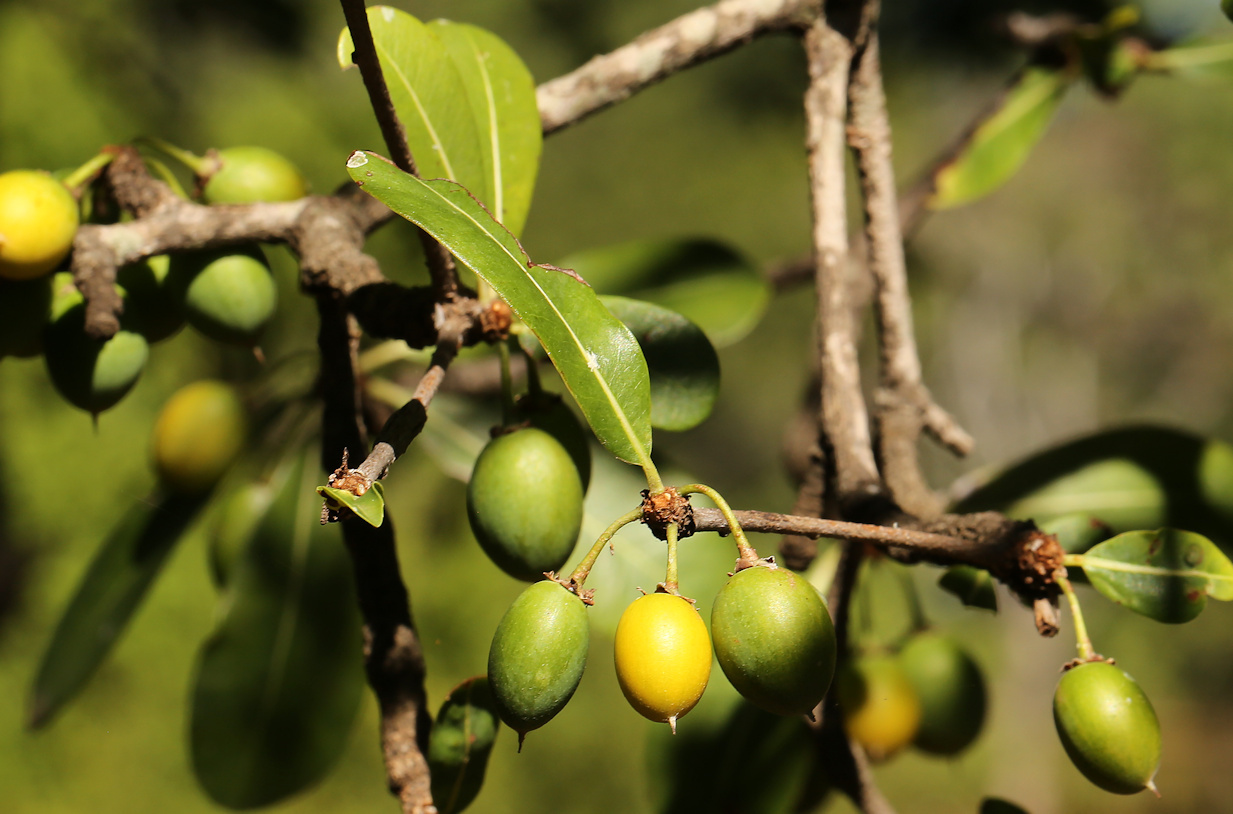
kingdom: Plantae
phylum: Tracheophyta
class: Magnoliopsida
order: Ericales
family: Sapotaceae
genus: Mimusops
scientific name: Mimusops zeyheri
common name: Transvaal red milkwood
